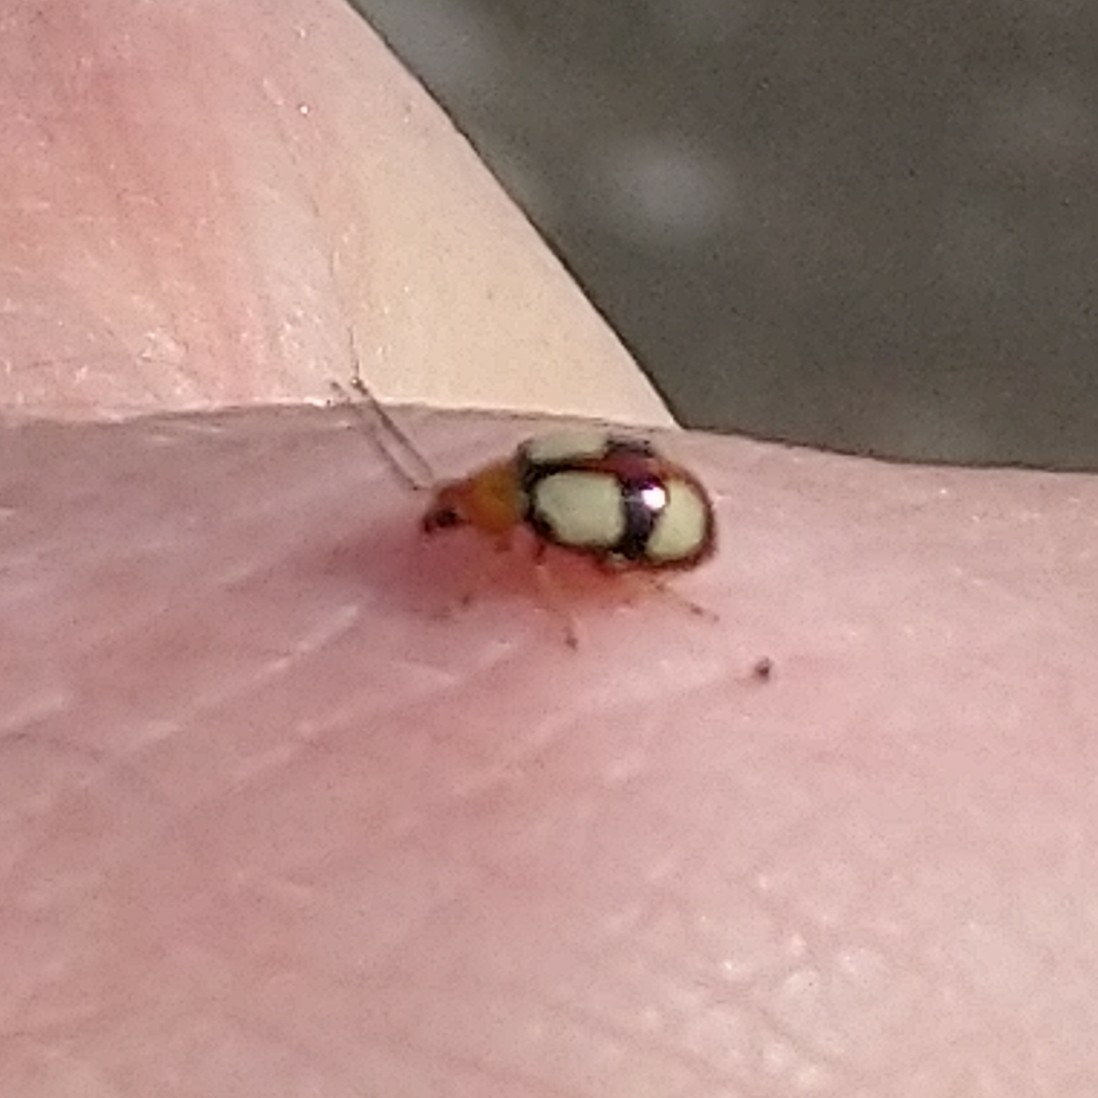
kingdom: Animalia
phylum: Arthropoda
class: Insecta
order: Coleoptera
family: Chrysomelidae
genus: Monolepta
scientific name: Monolepta
